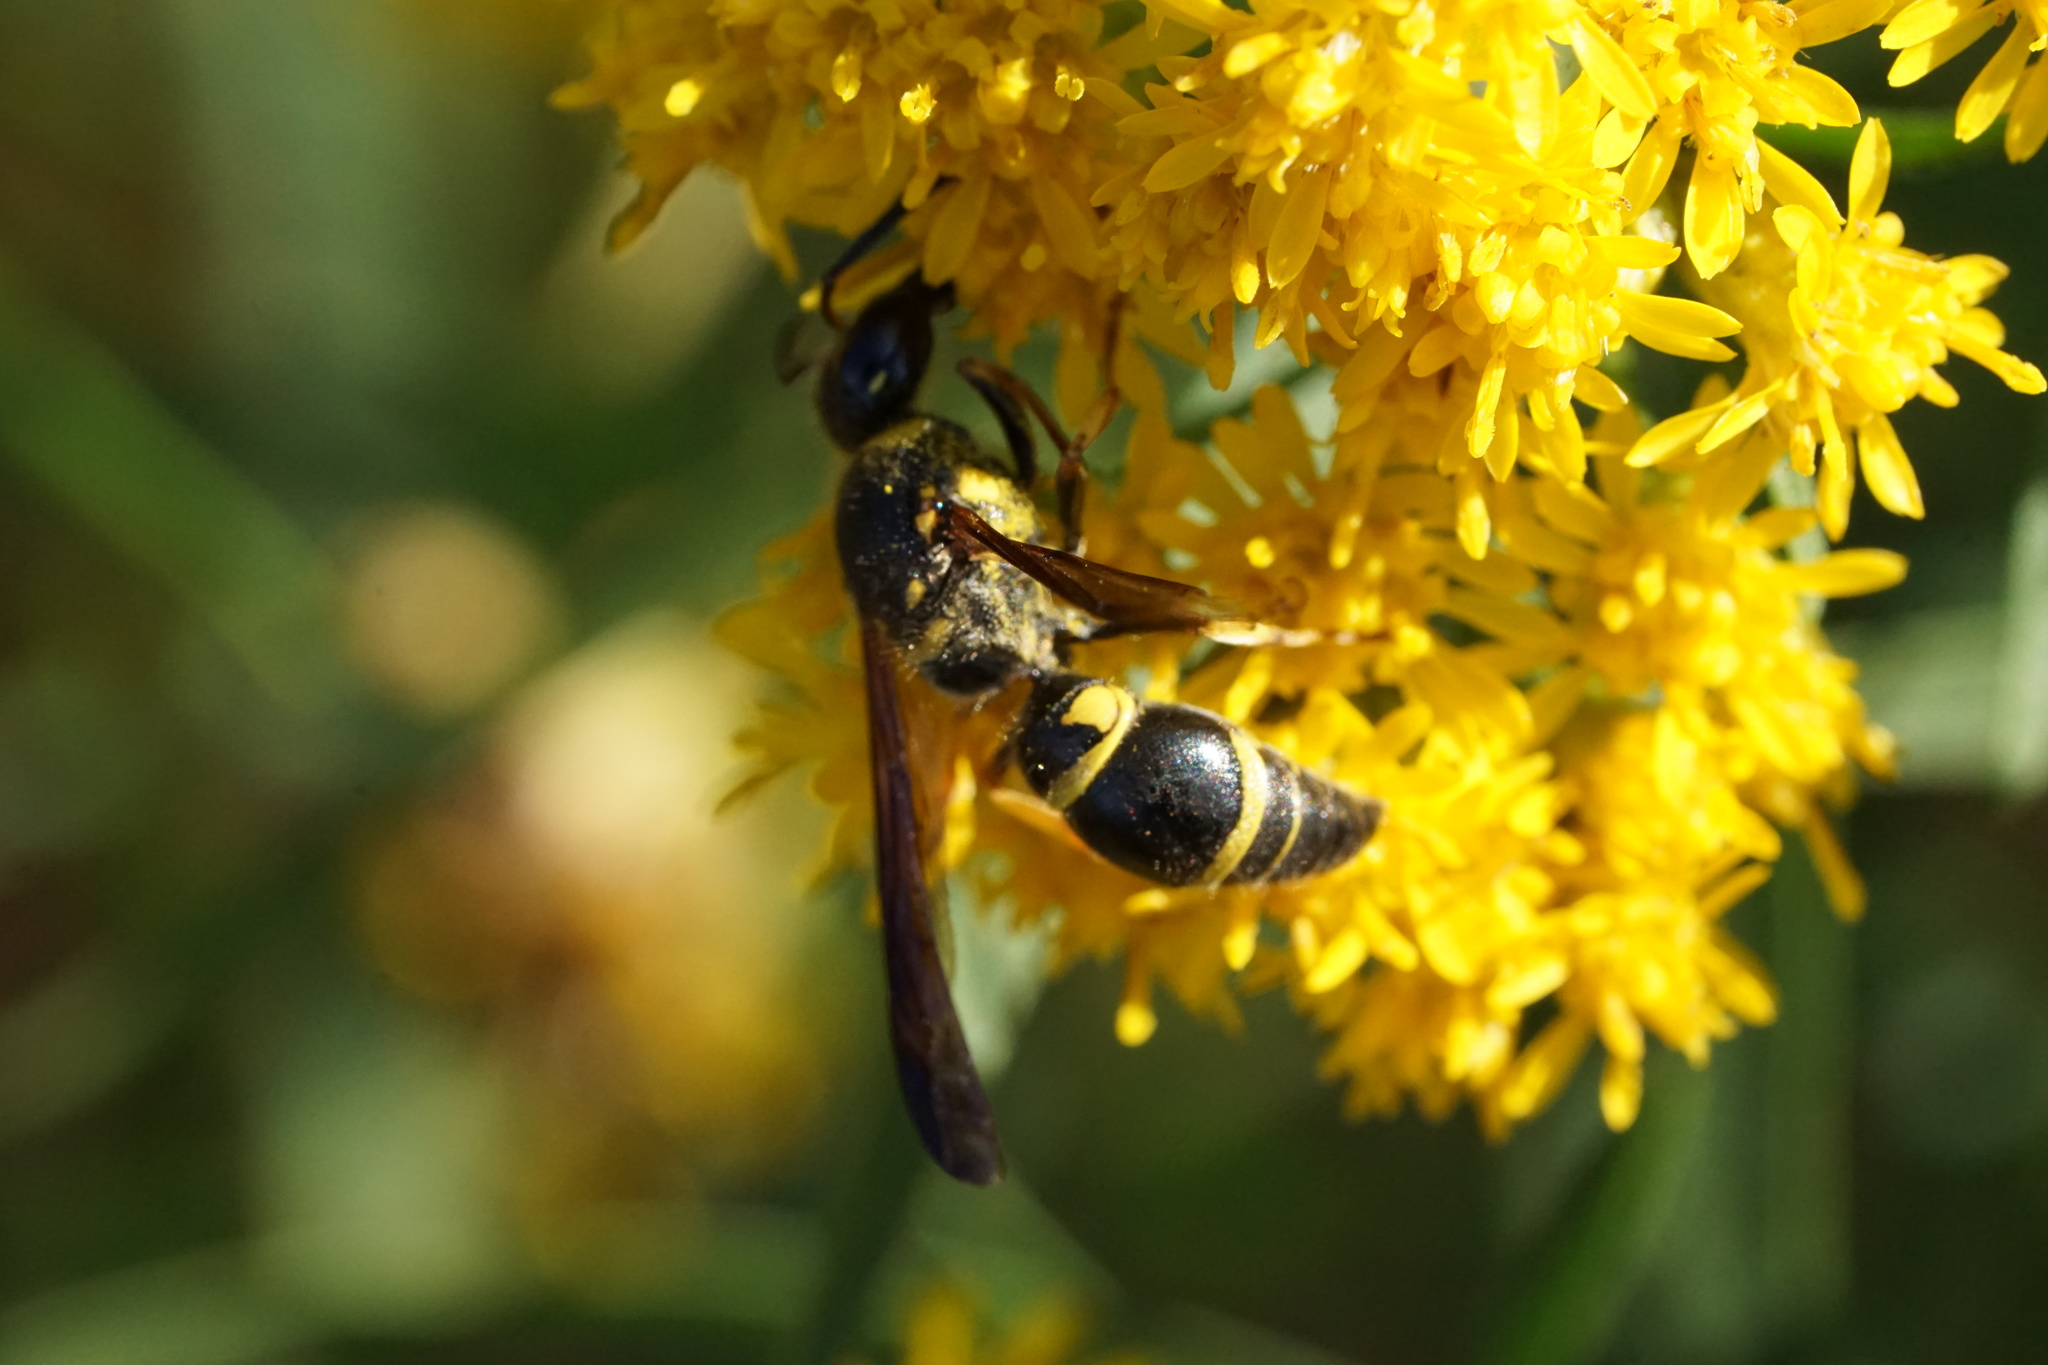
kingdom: Animalia
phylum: Arthropoda
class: Insecta
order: Hymenoptera
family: Vespidae
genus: Ancistrocerus
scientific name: Ancistrocerus campestris
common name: Smiling mason wasp
